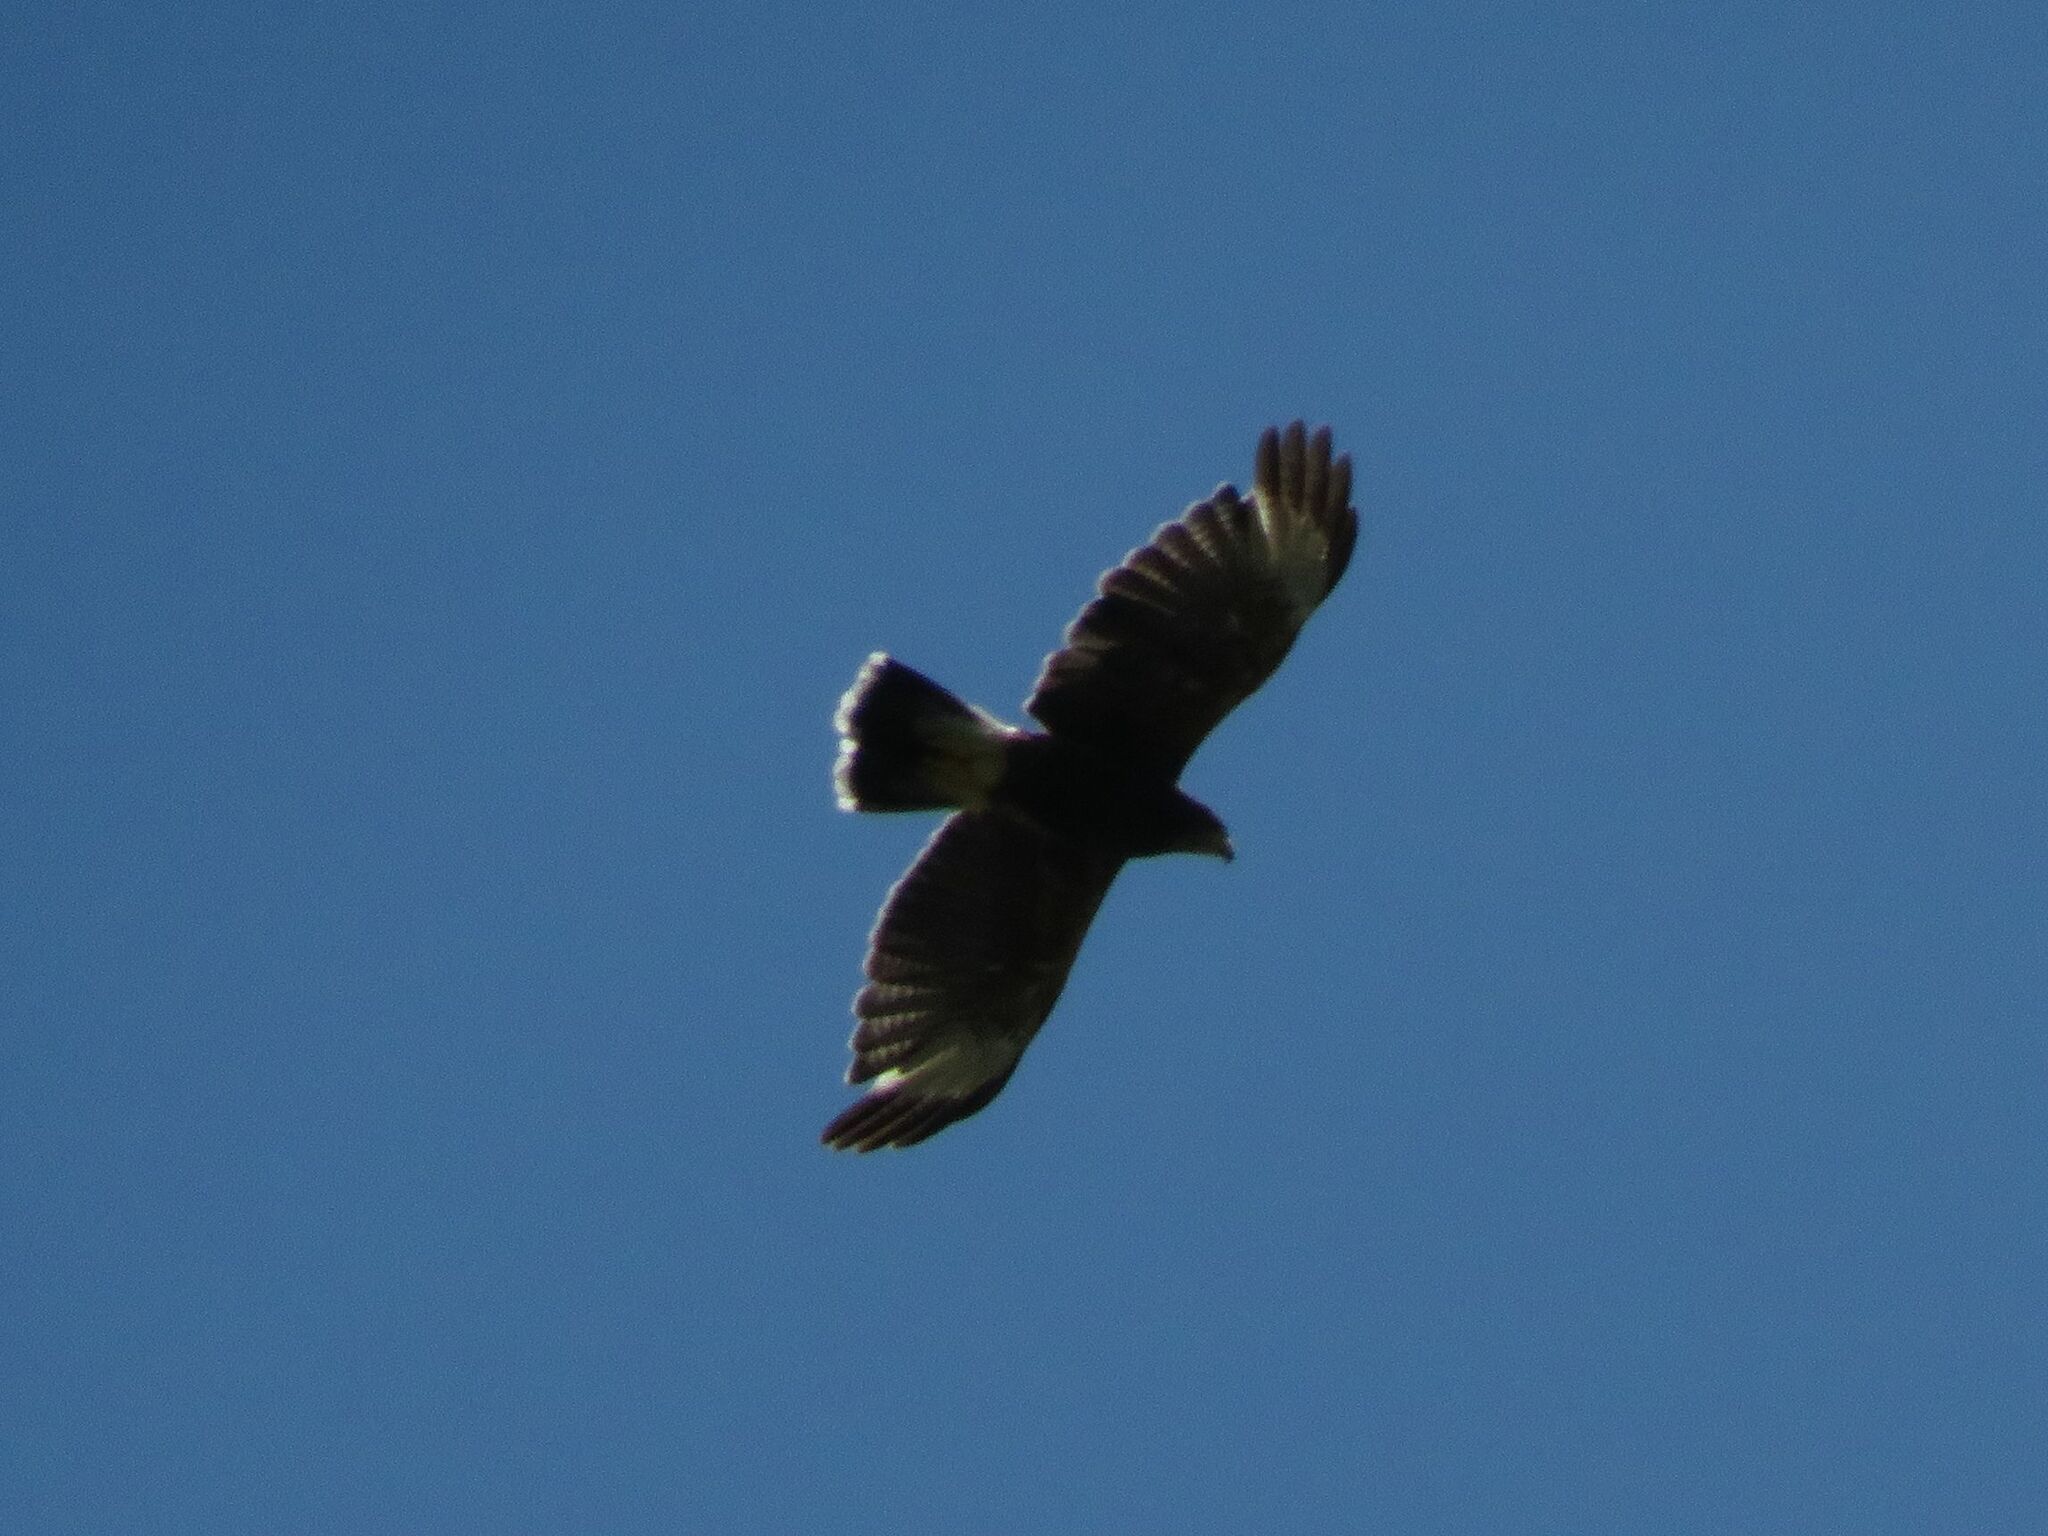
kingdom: Animalia
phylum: Chordata
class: Aves
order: Accipitriformes
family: Accipitridae
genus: Parabuteo
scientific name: Parabuteo unicinctus
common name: Harris's hawk
